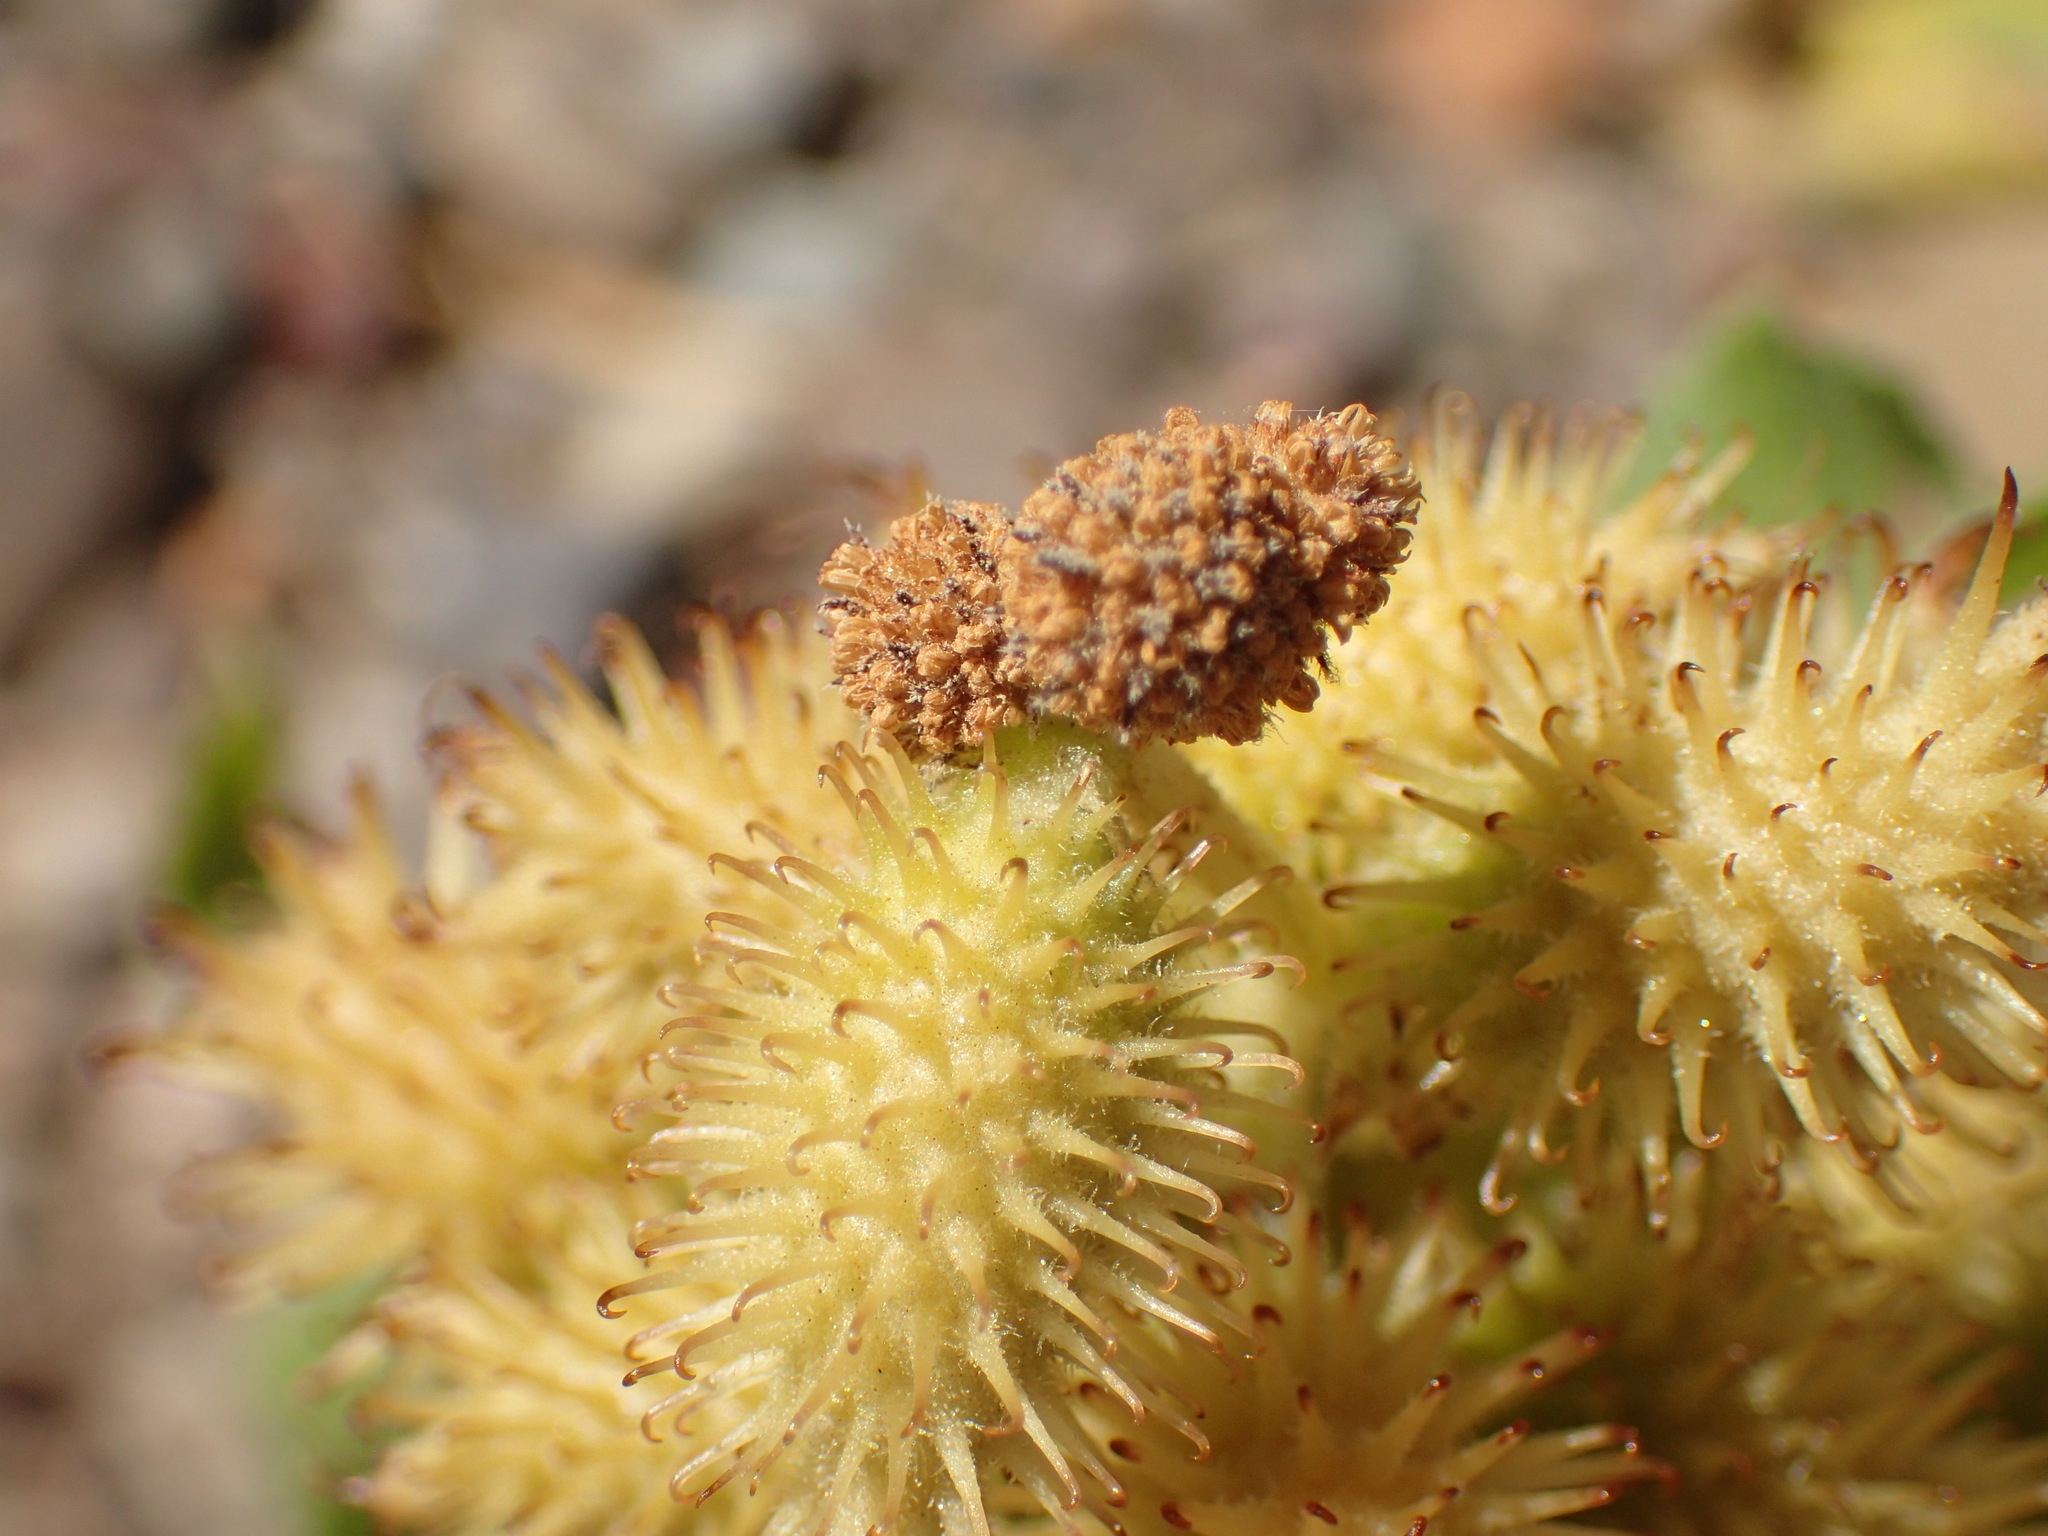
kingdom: Plantae
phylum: Tracheophyta
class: Magnoliopsida
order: Asterales
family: Asteraceae
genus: Xanthium
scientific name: Xanthium strumarium
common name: Rough cocklebur
